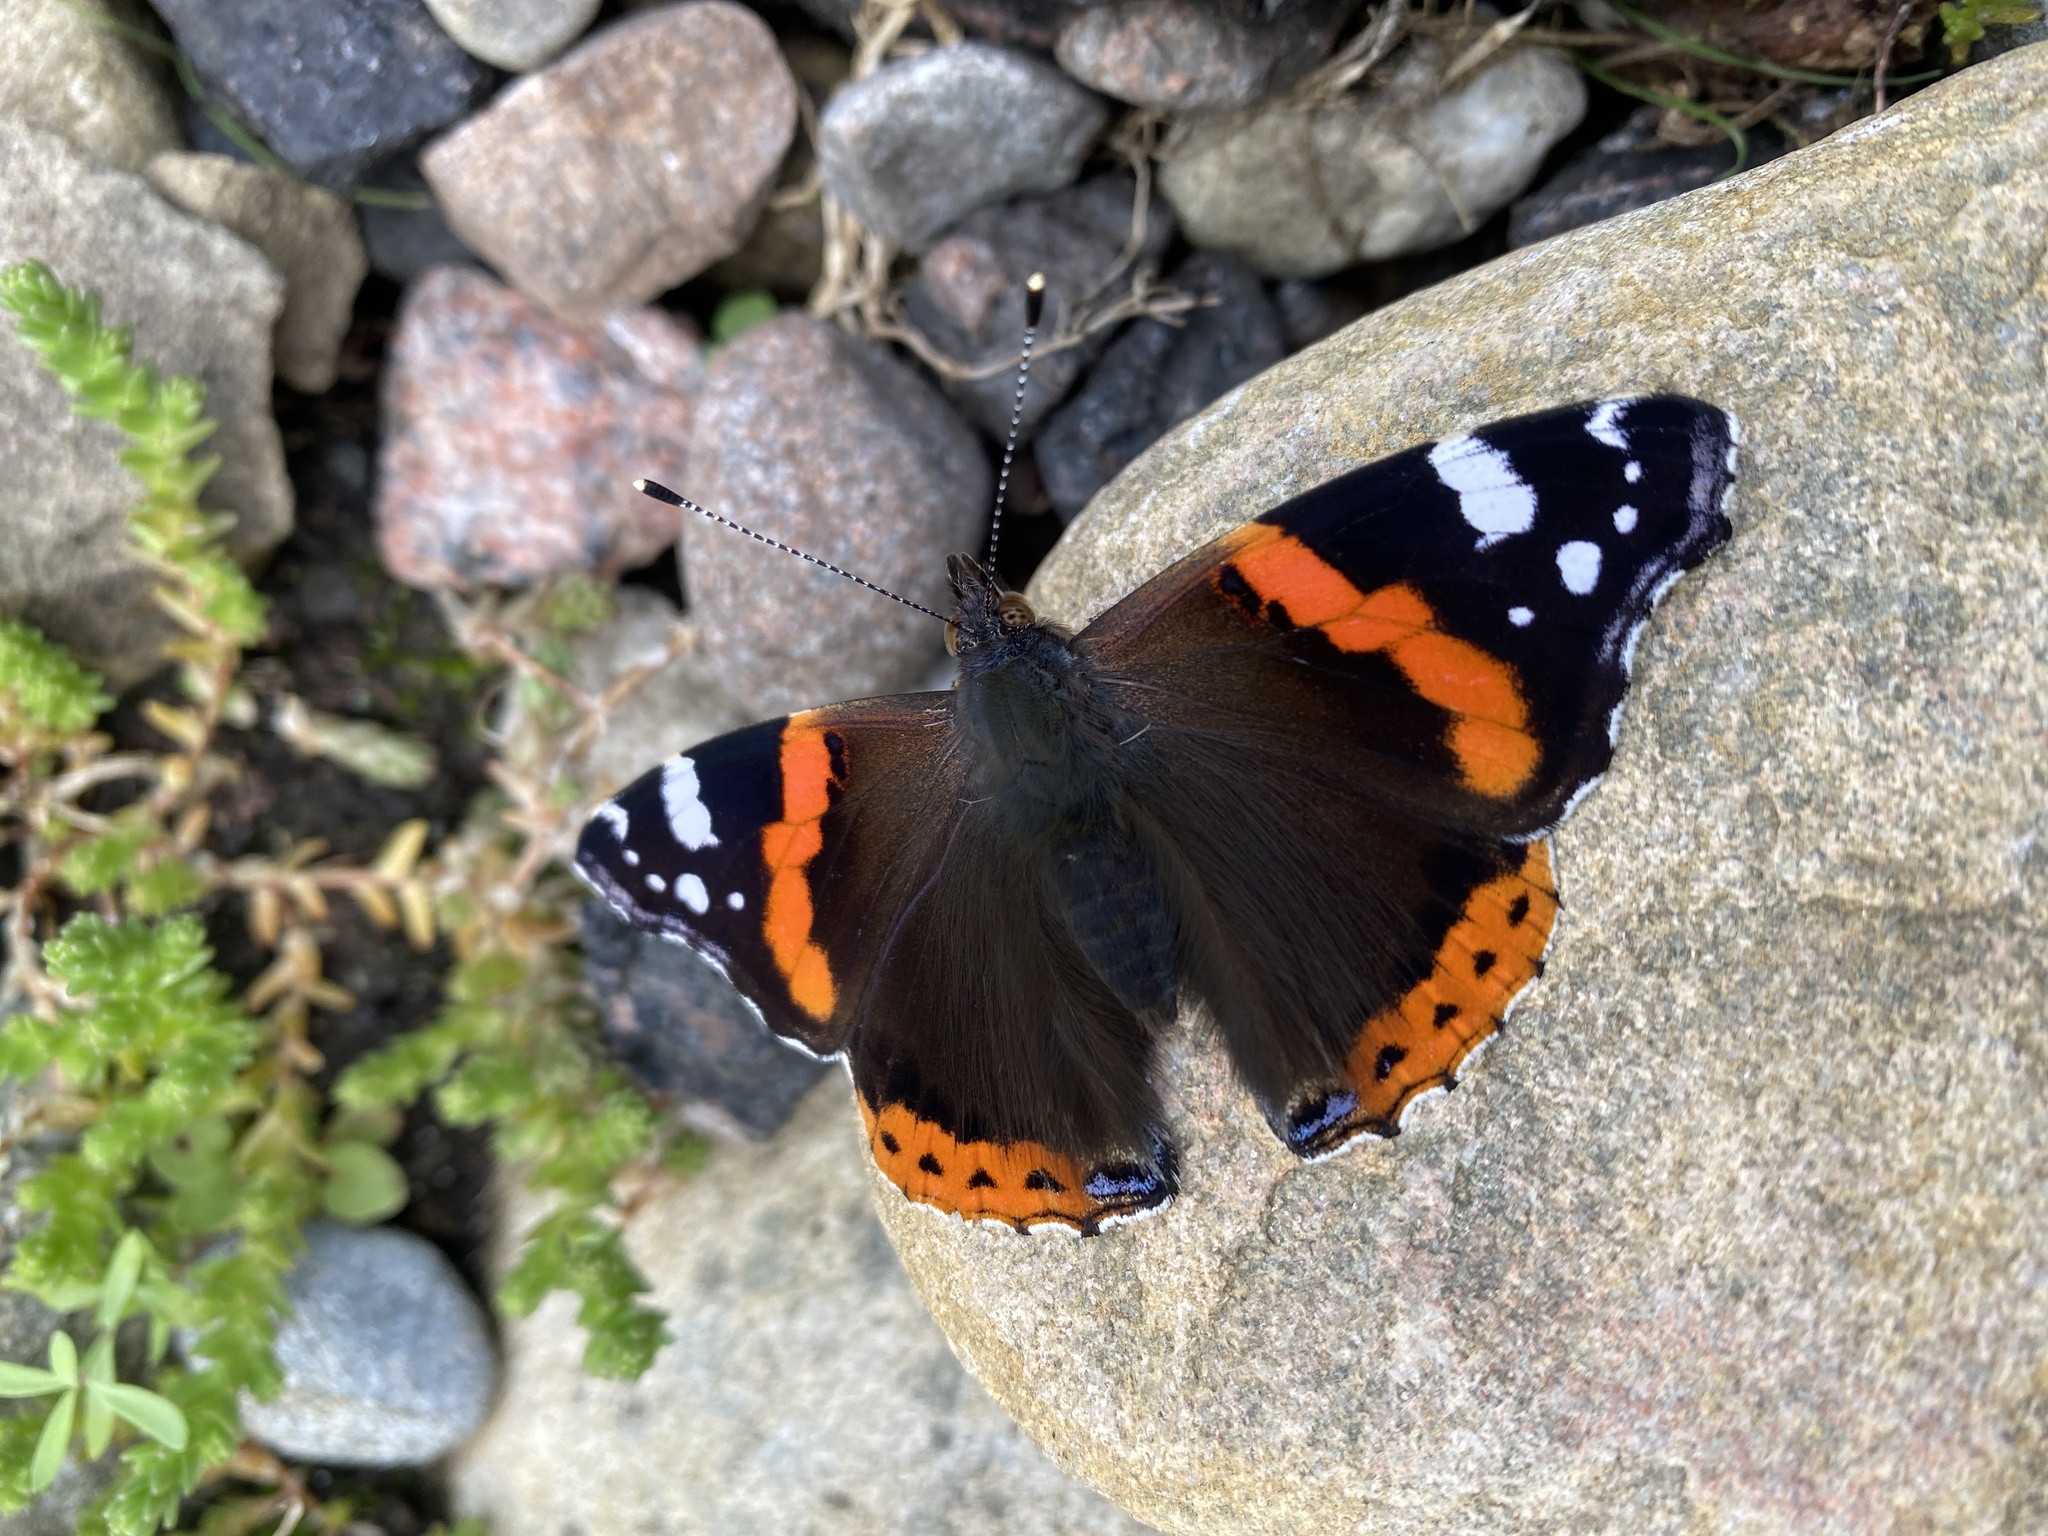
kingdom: Animalia
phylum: Arthropoda
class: Insecta
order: Lepidoptera
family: Nymphalidae
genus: Vanessa
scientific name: Vanessa atalanta
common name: Red admiral
